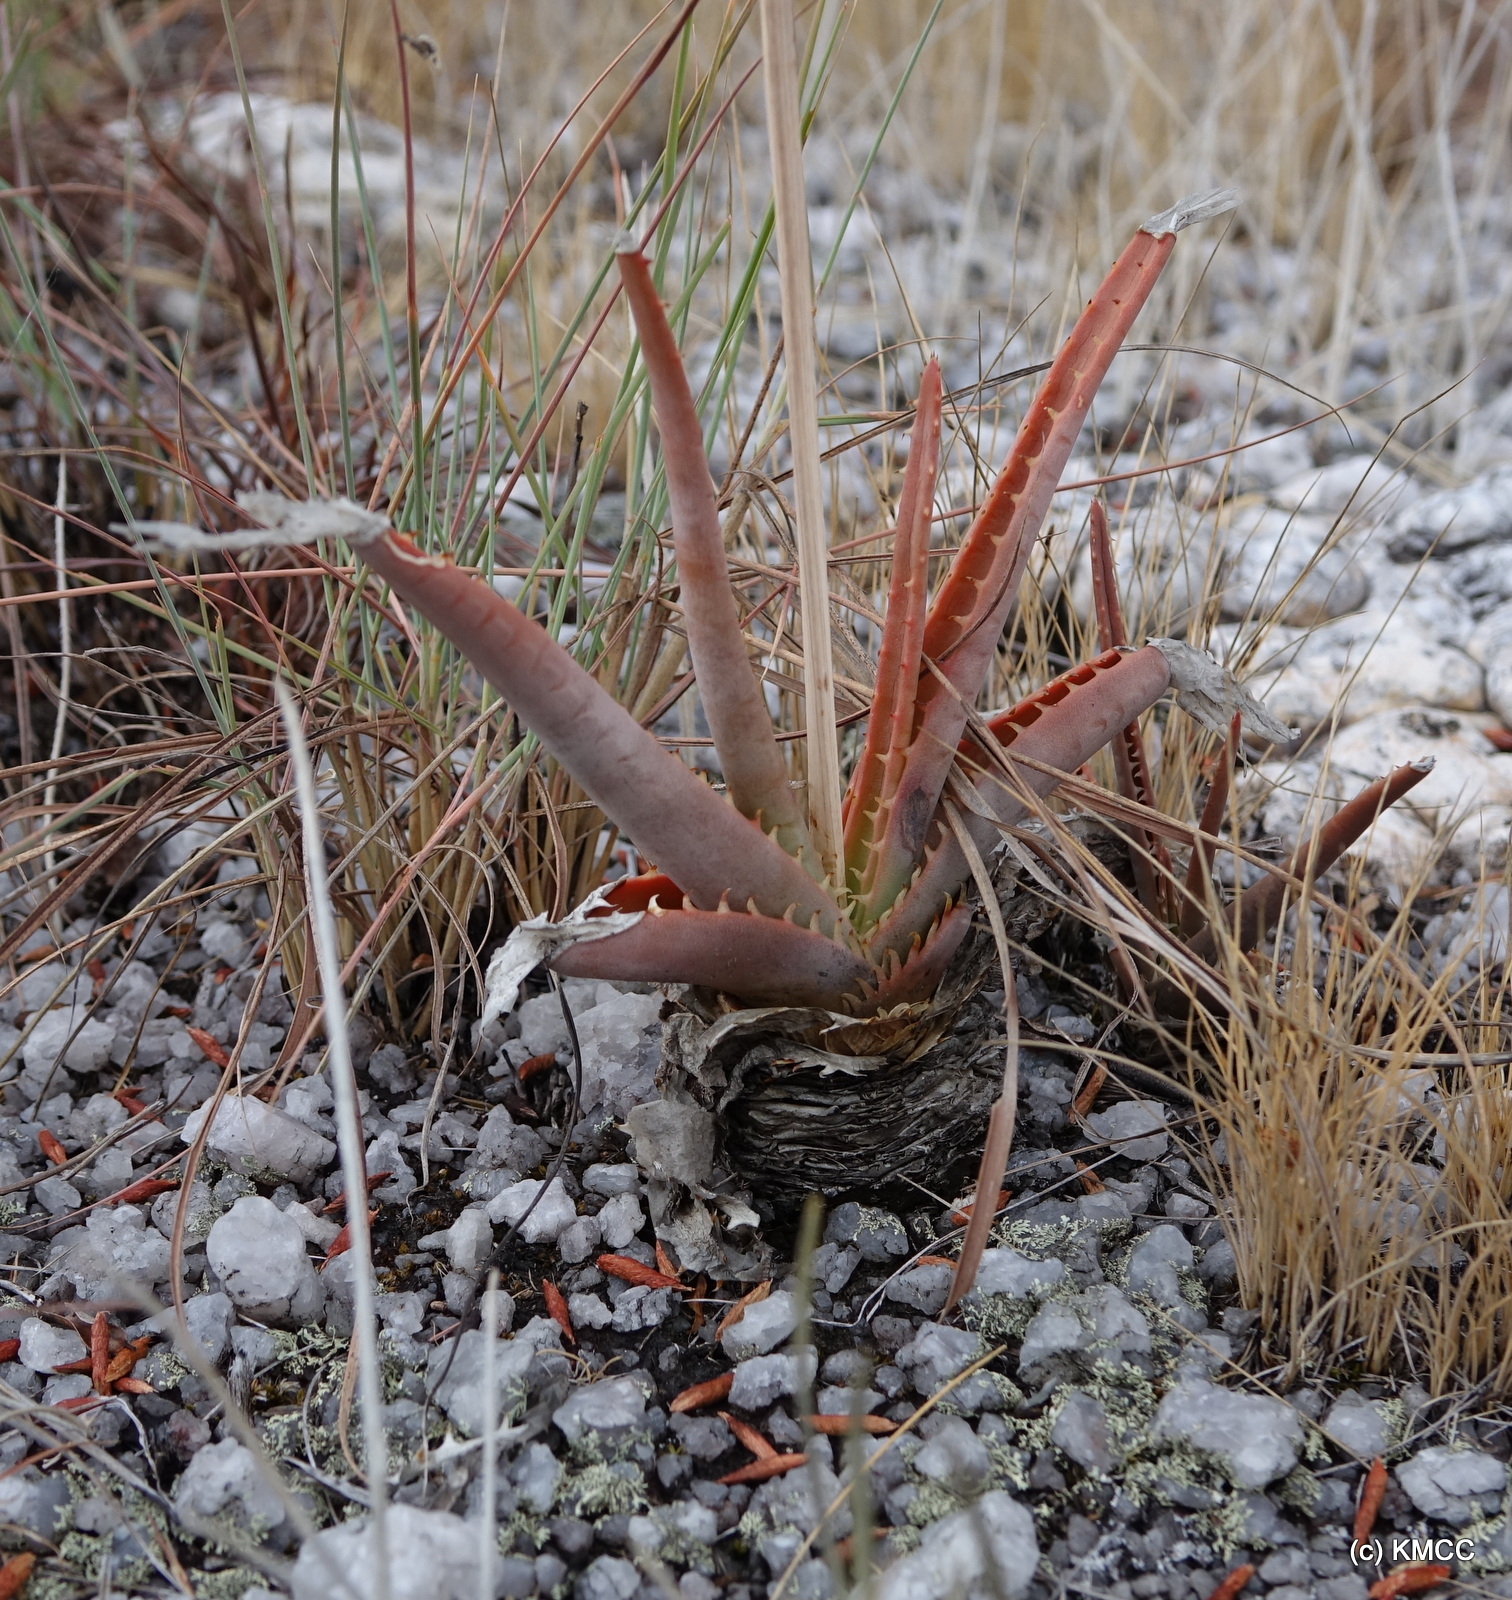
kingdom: Plantae
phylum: Tracheophyta
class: Liliopsida
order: Asparagales
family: Asphodelaceae
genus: Aloe
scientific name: Aloe compressa
